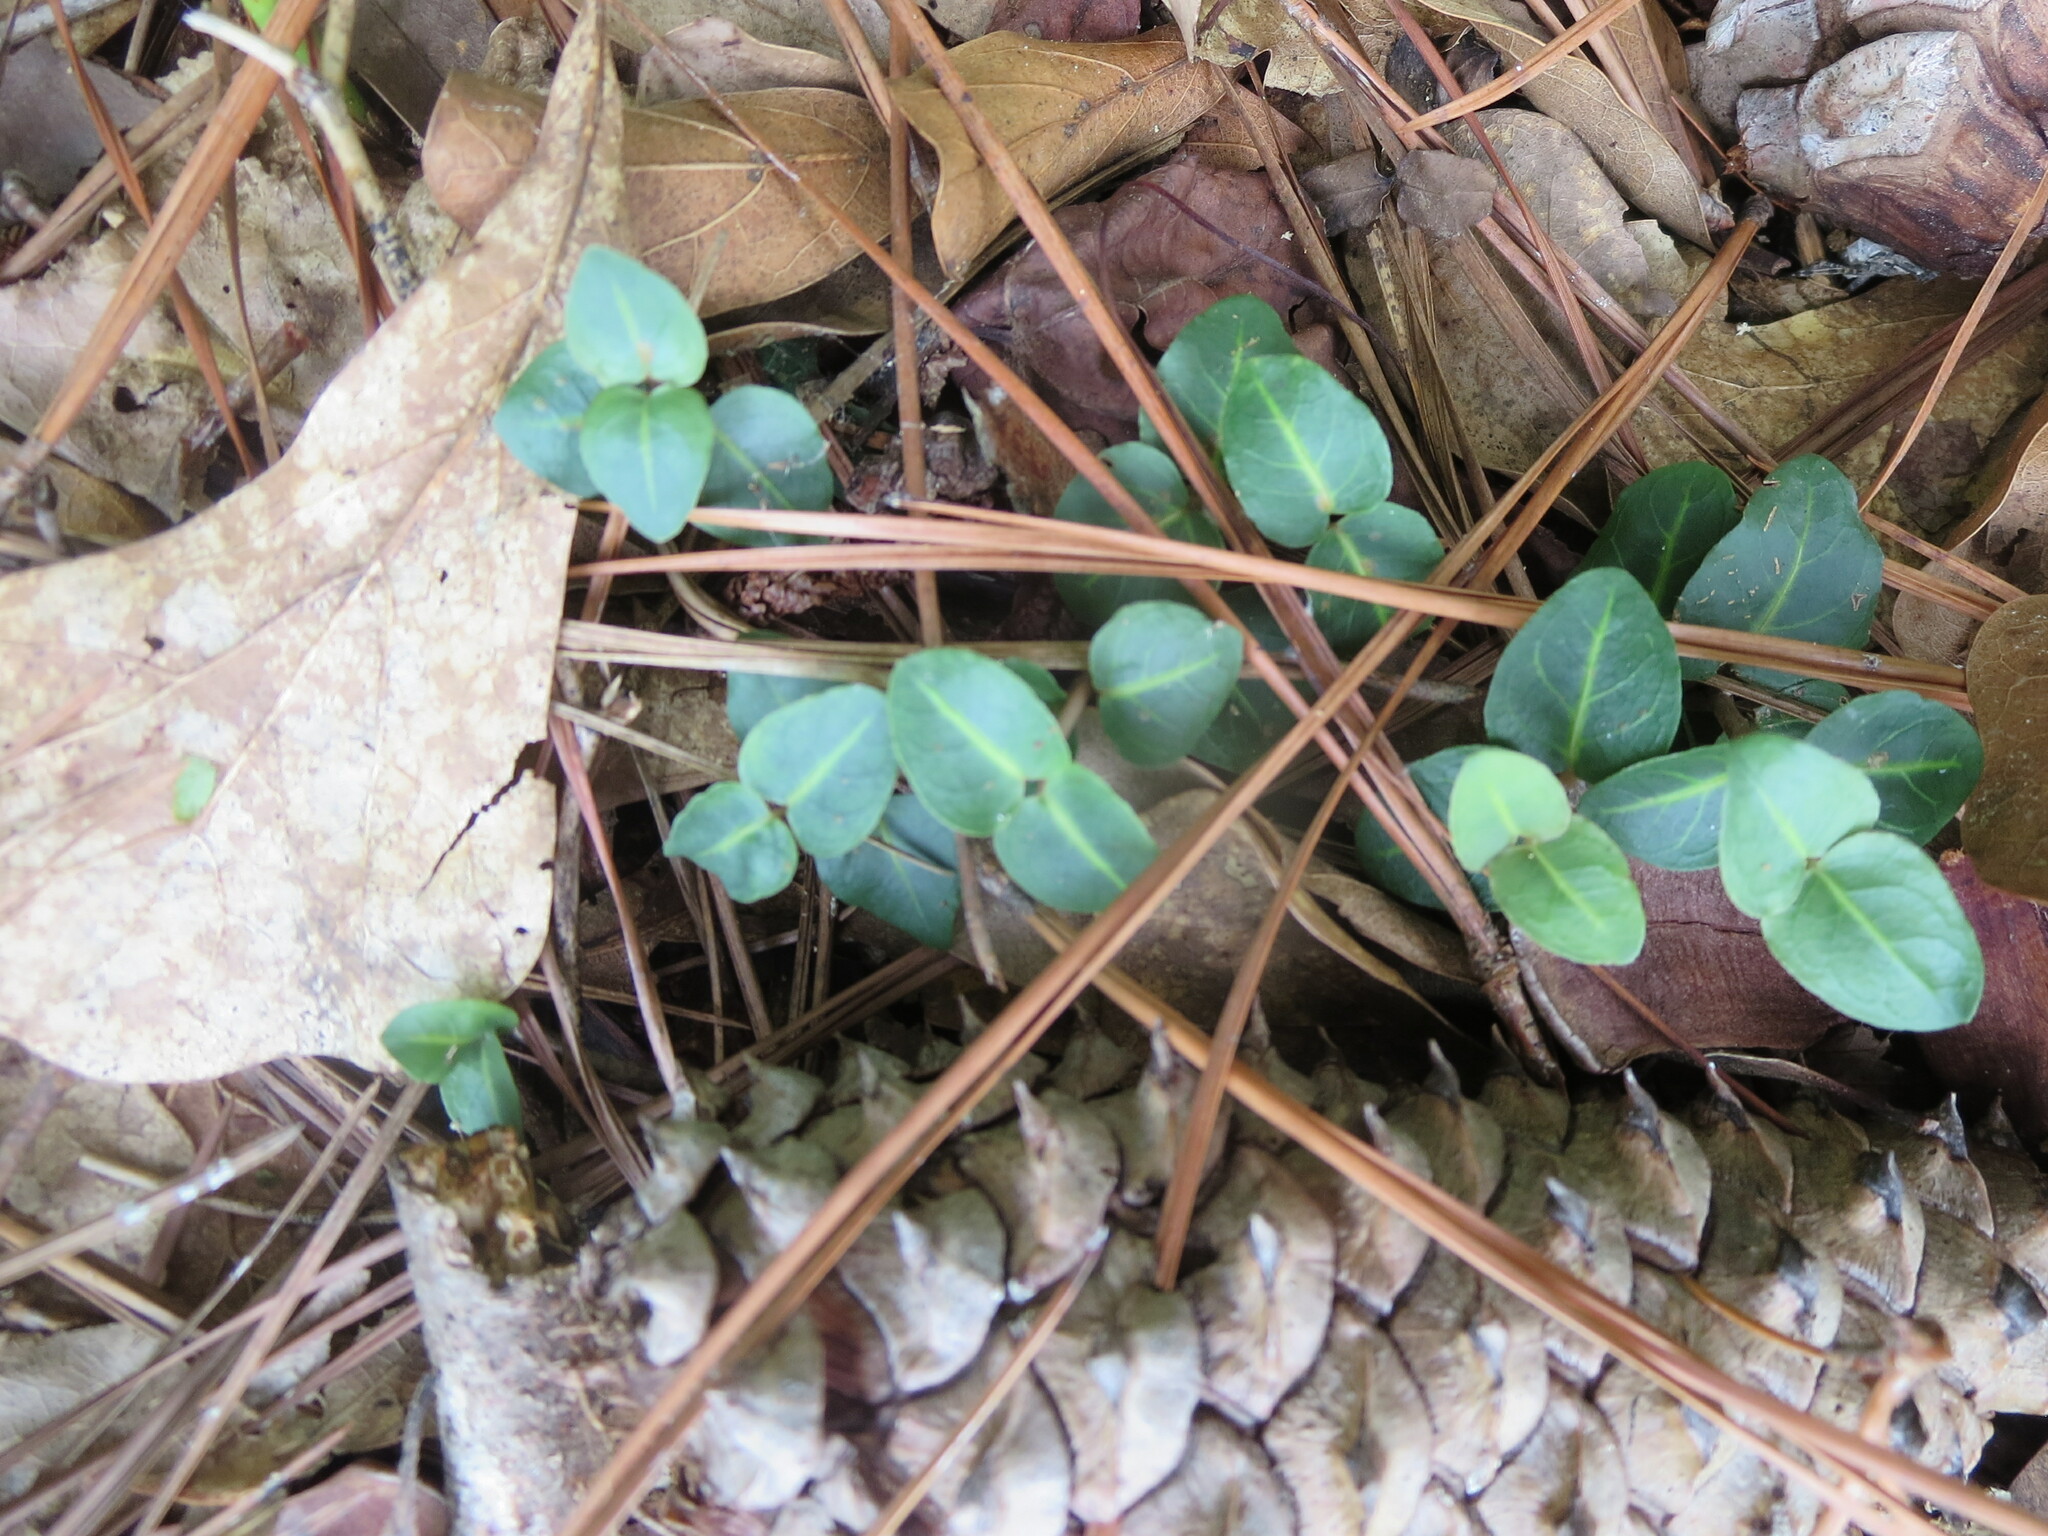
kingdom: Plantae
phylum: Tracheophyta
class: Magnoliopsida
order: Gentianales
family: Rubiaceae
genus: Mitchella
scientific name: Mitchella repens
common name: Partridge-berry
